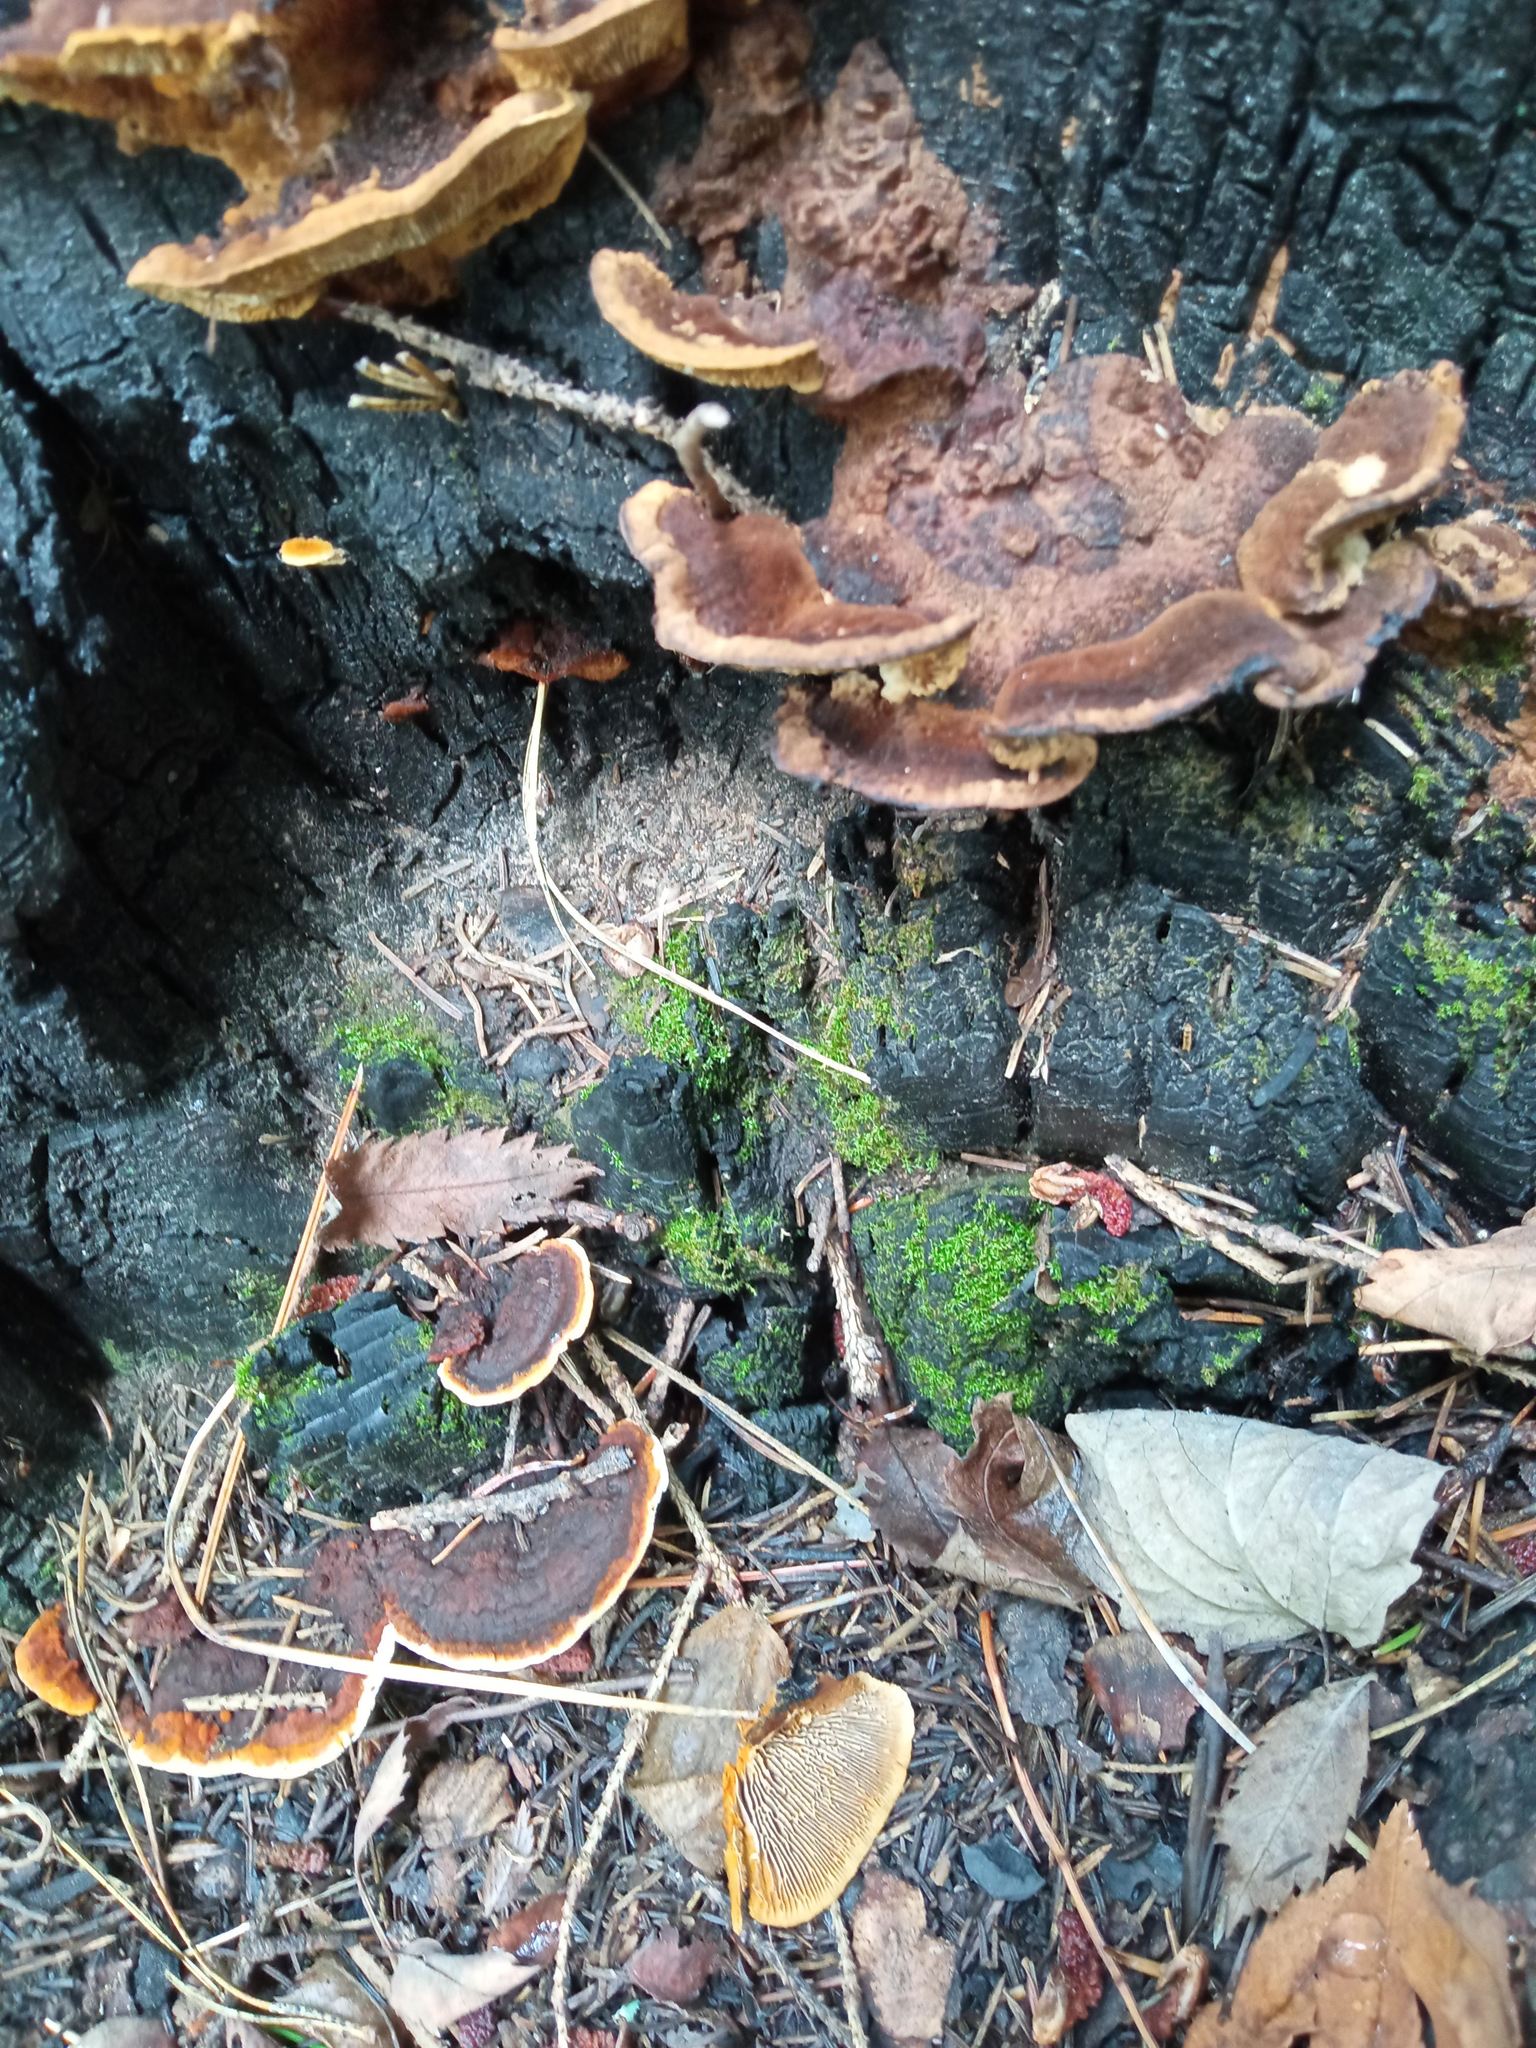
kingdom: Fungi
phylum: Basidiomycota
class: Agaricomycetes
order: Gloeophyllales
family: Gloeophyllaceae
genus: Gloeophyllum
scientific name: Gloeophyllum sepiarium
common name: Conifer mazegill
